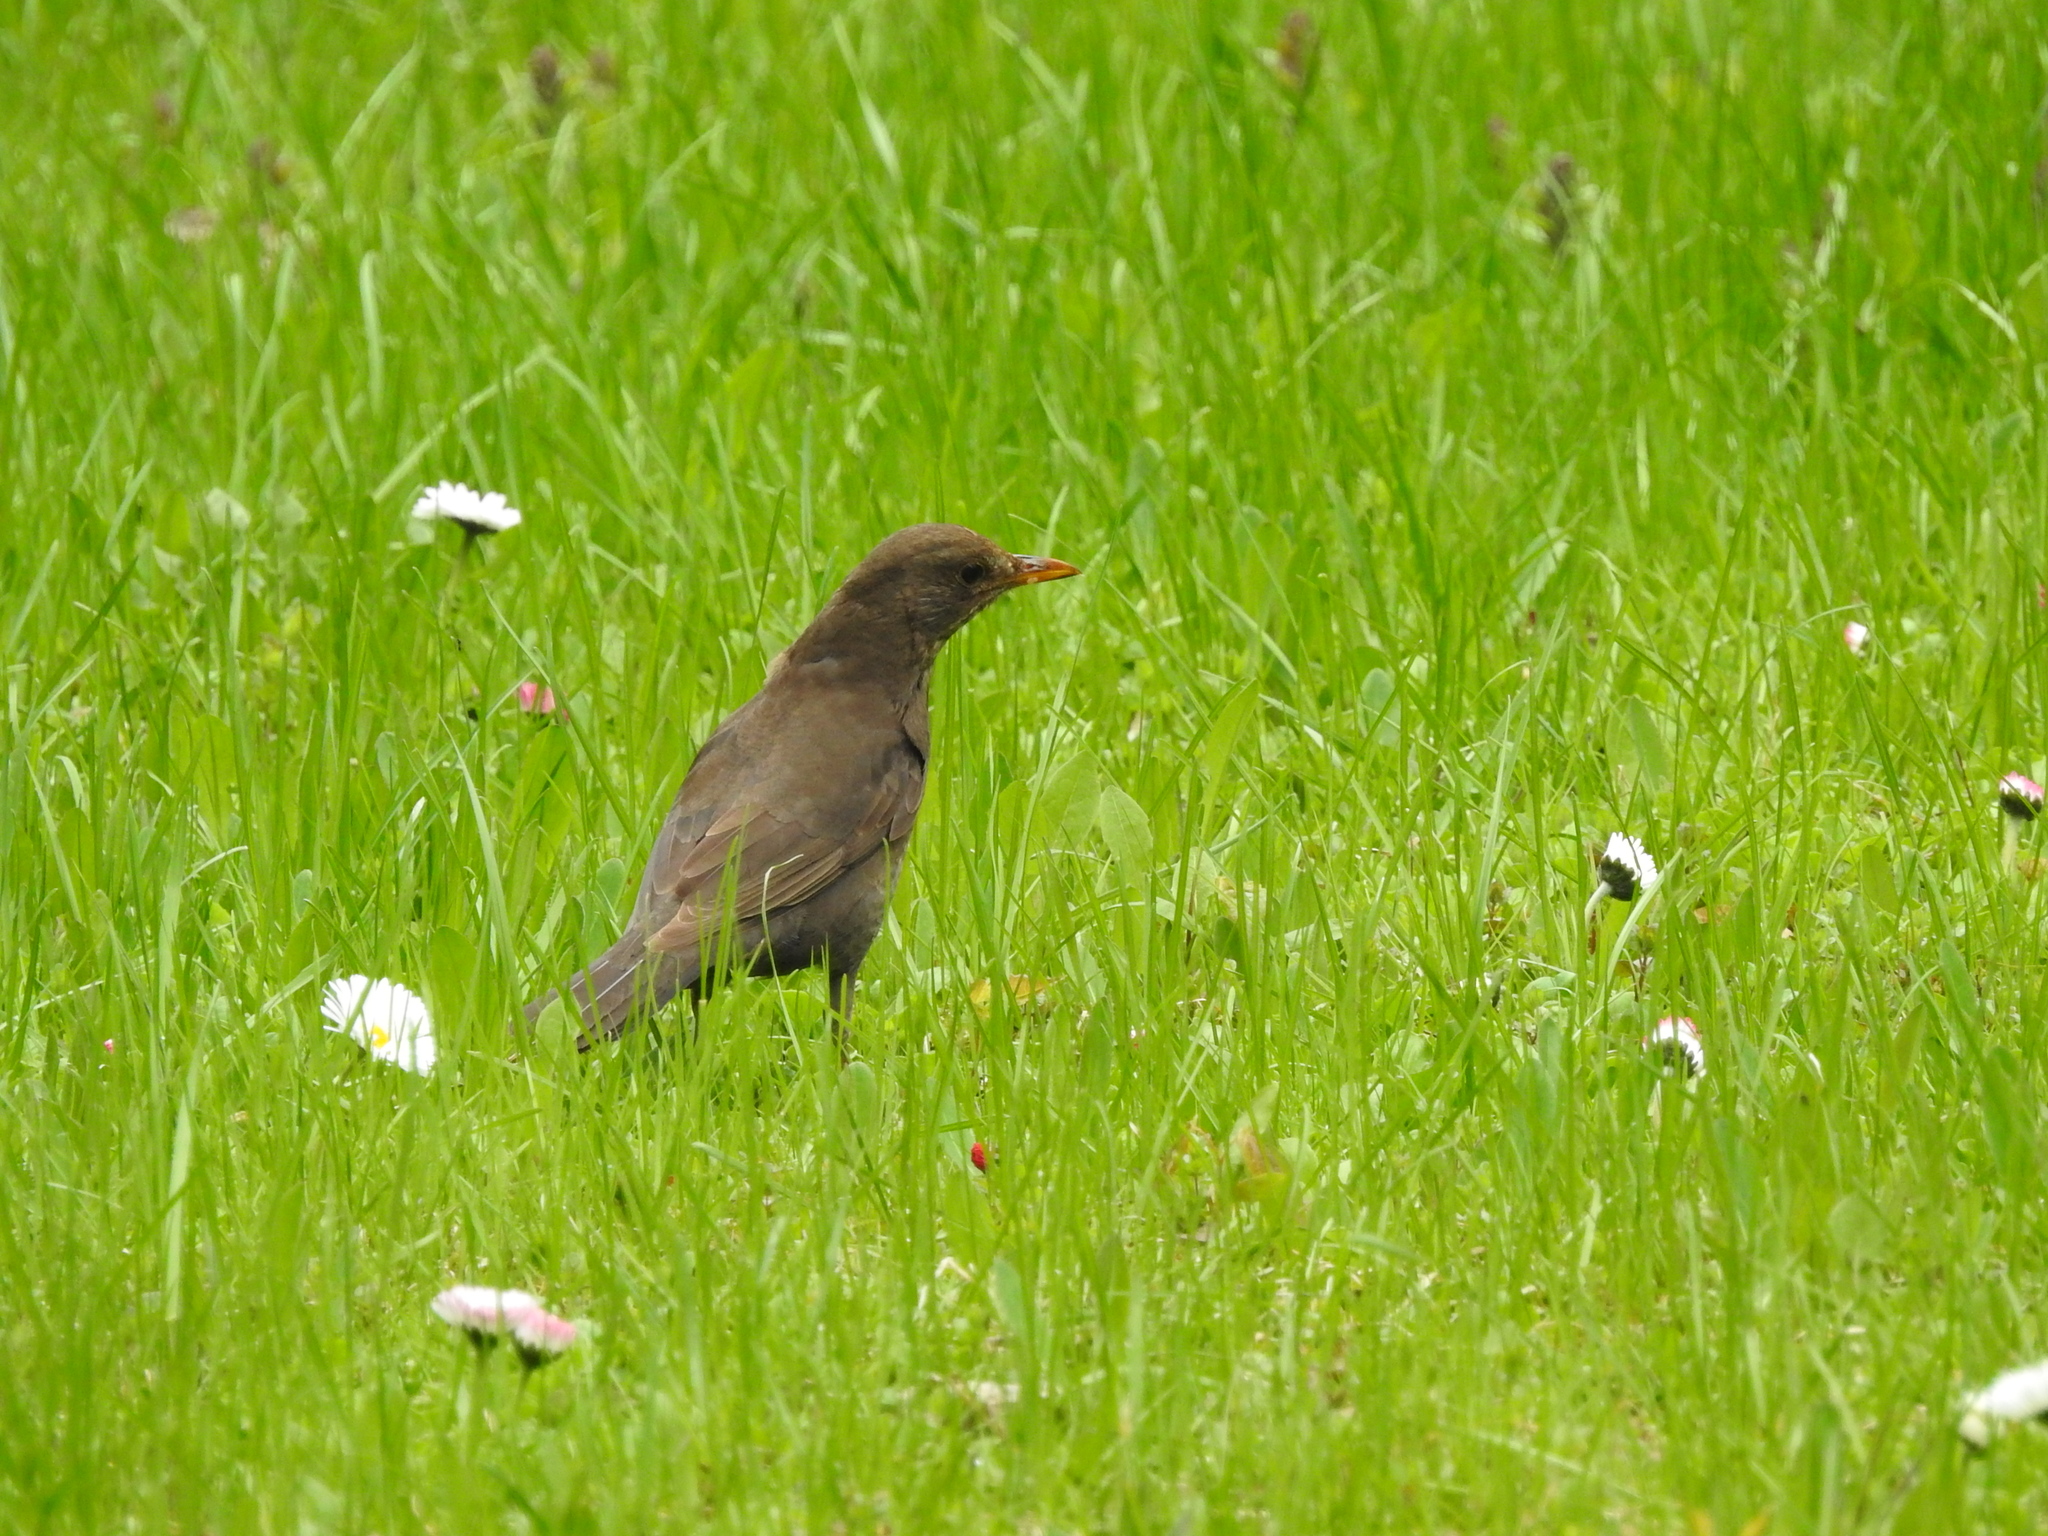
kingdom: Animalia
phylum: Chordata
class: Aves
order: Passeriformes
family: Turdidae
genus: Turdus
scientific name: Turdus merula
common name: Common blackbird
